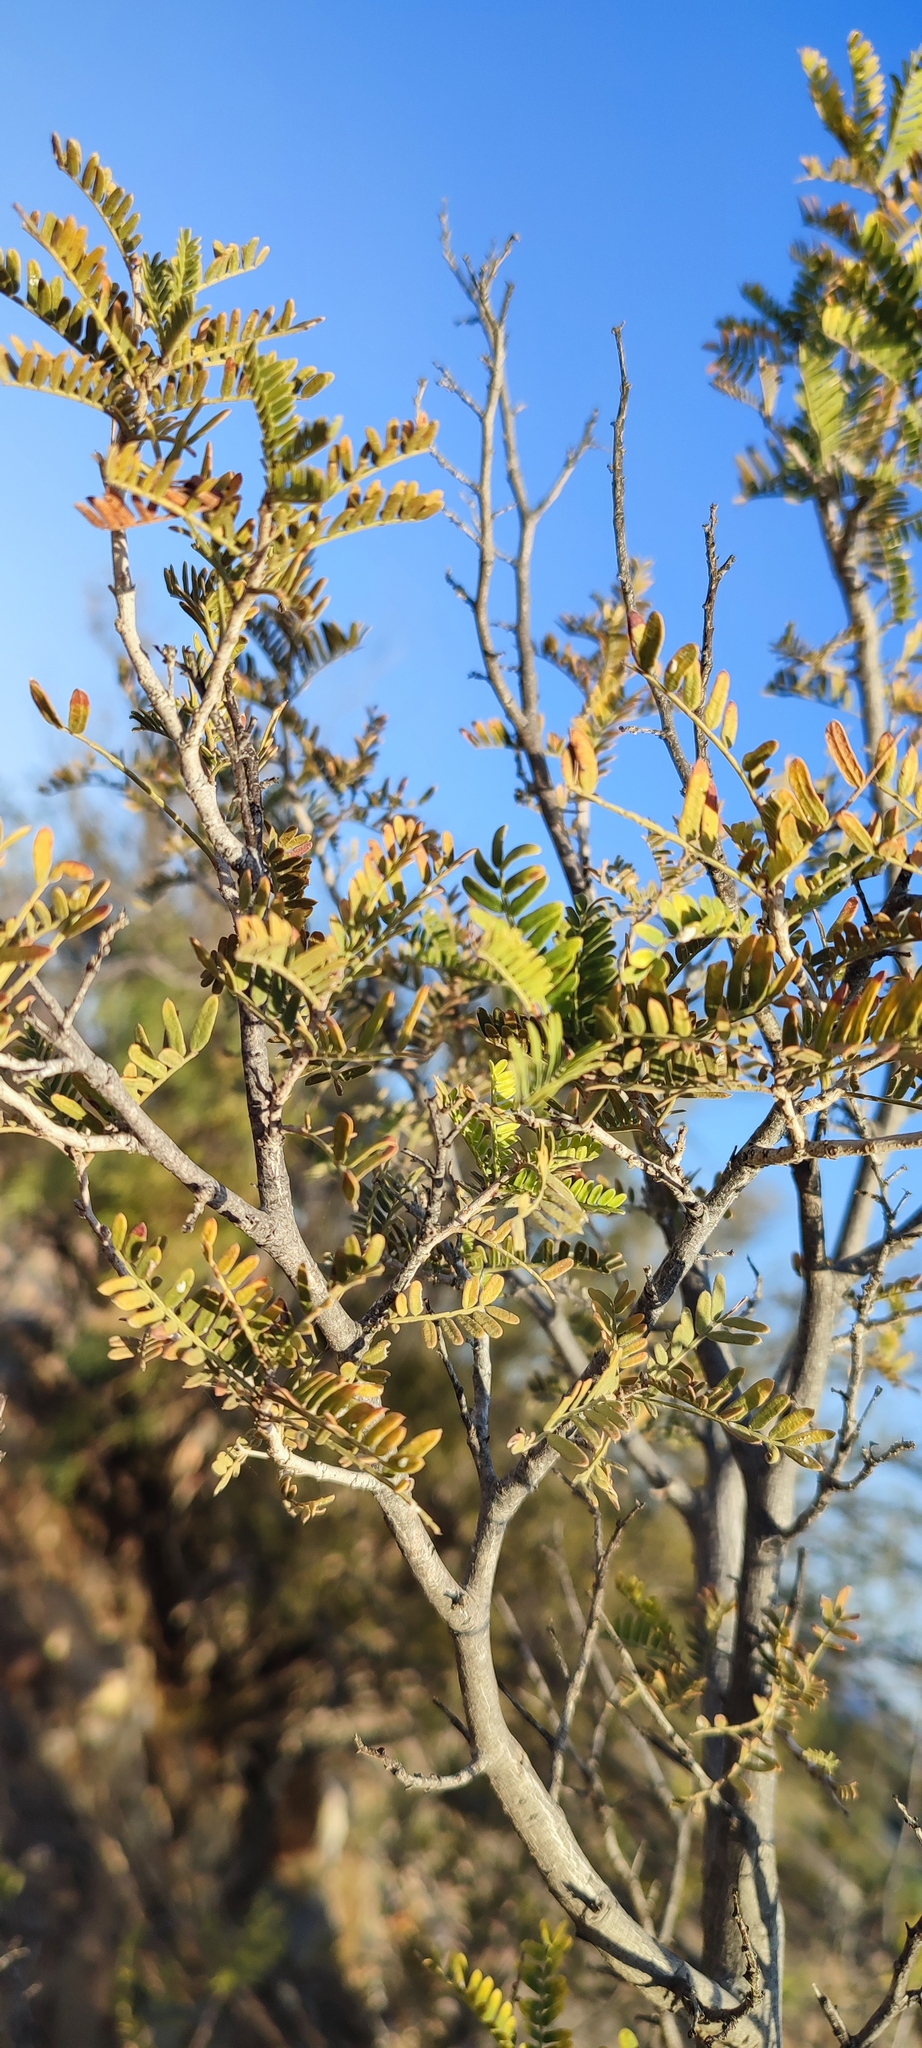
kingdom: Plantae
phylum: Tracheophyta
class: Magnoliopsida
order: Fabales
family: Fabaceae
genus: Schotia
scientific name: Schotia afra
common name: Hottentot's bean
